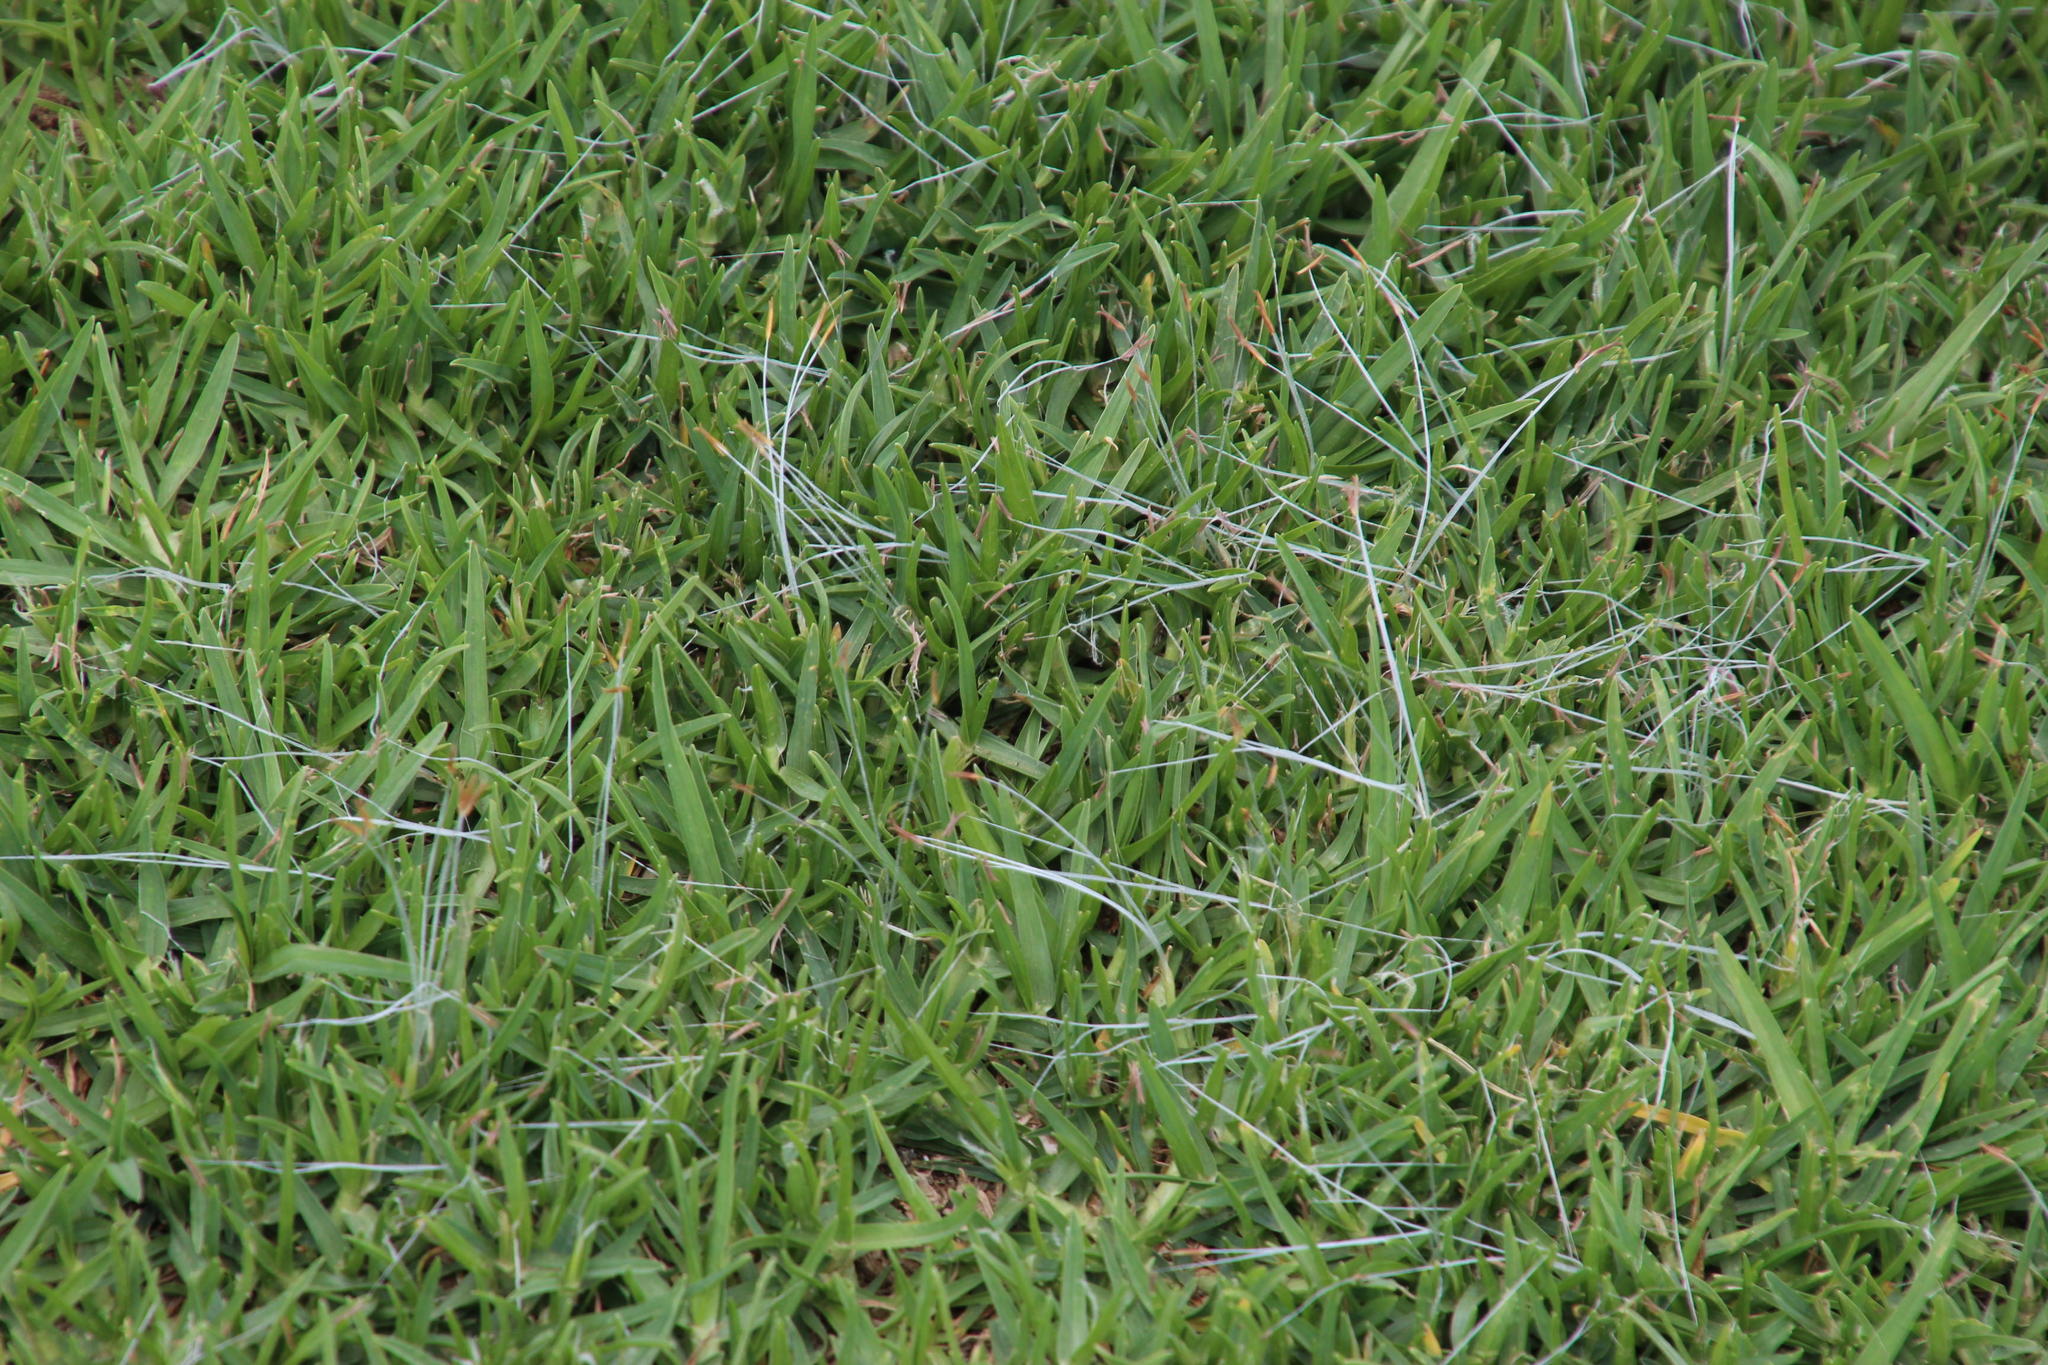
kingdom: Plantae
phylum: Tracheophyta
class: Liliopsida
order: Poales
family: Poaceae
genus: Cenchrus
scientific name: Cenchrus clandestinus
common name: Kikuyugrass
